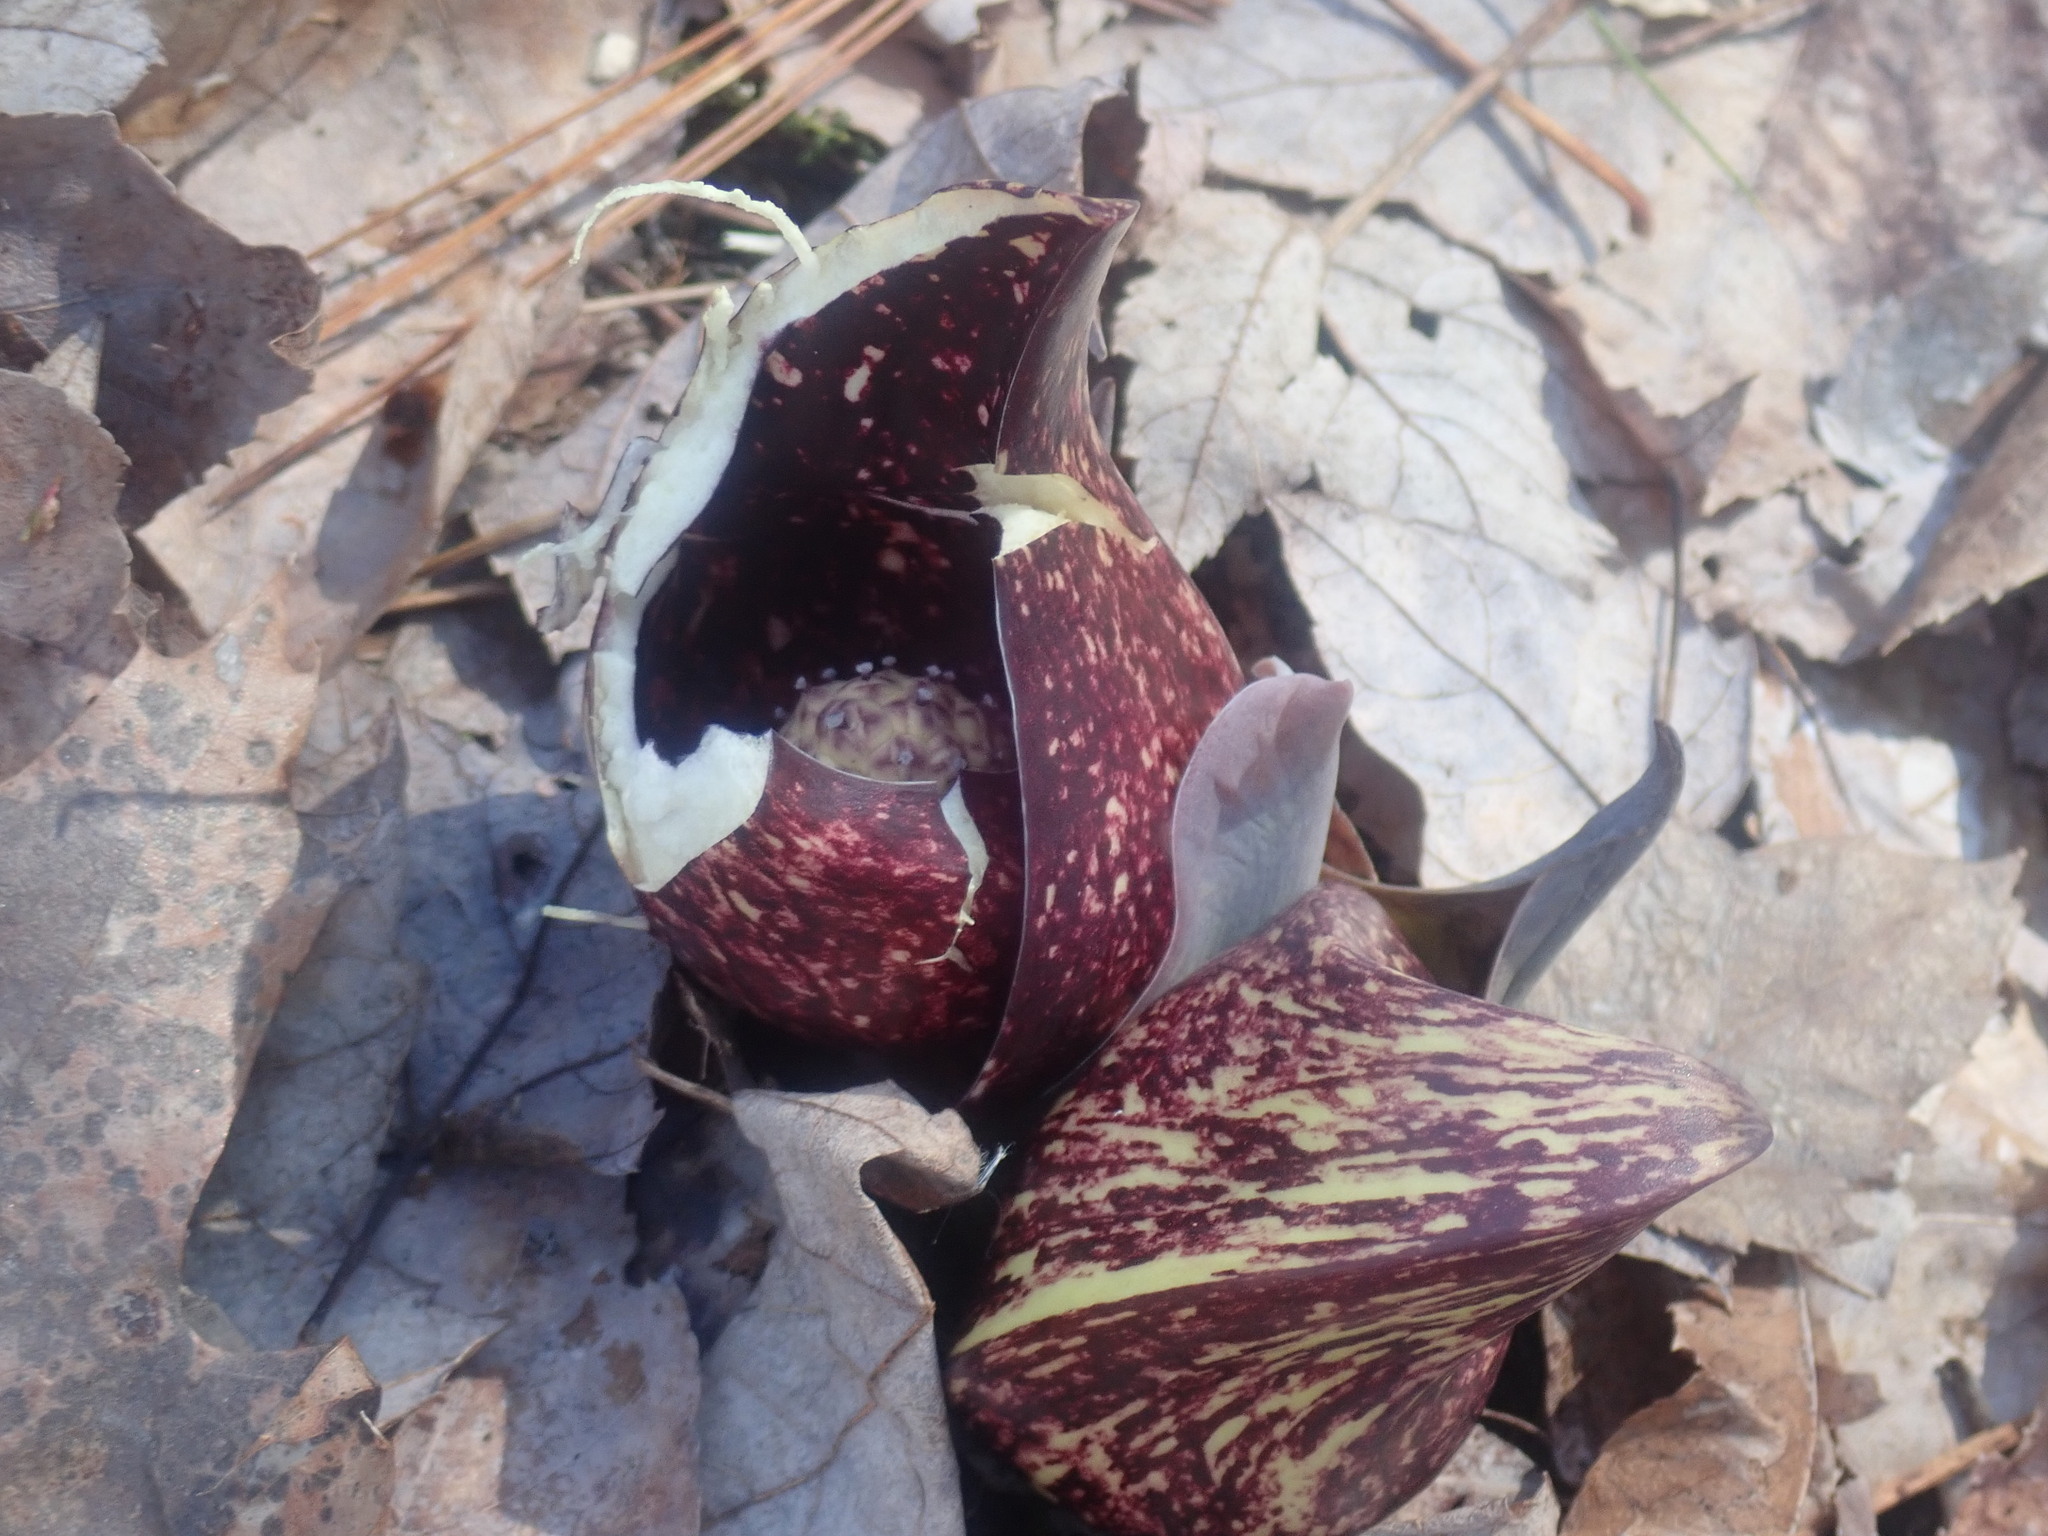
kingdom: Plantae
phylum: Tracheophyta
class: Liliopsida
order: Alismatales
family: Araceae
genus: Symplocarpus
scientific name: Symplocarpus foetidus
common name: Eastern skunk cabbage
